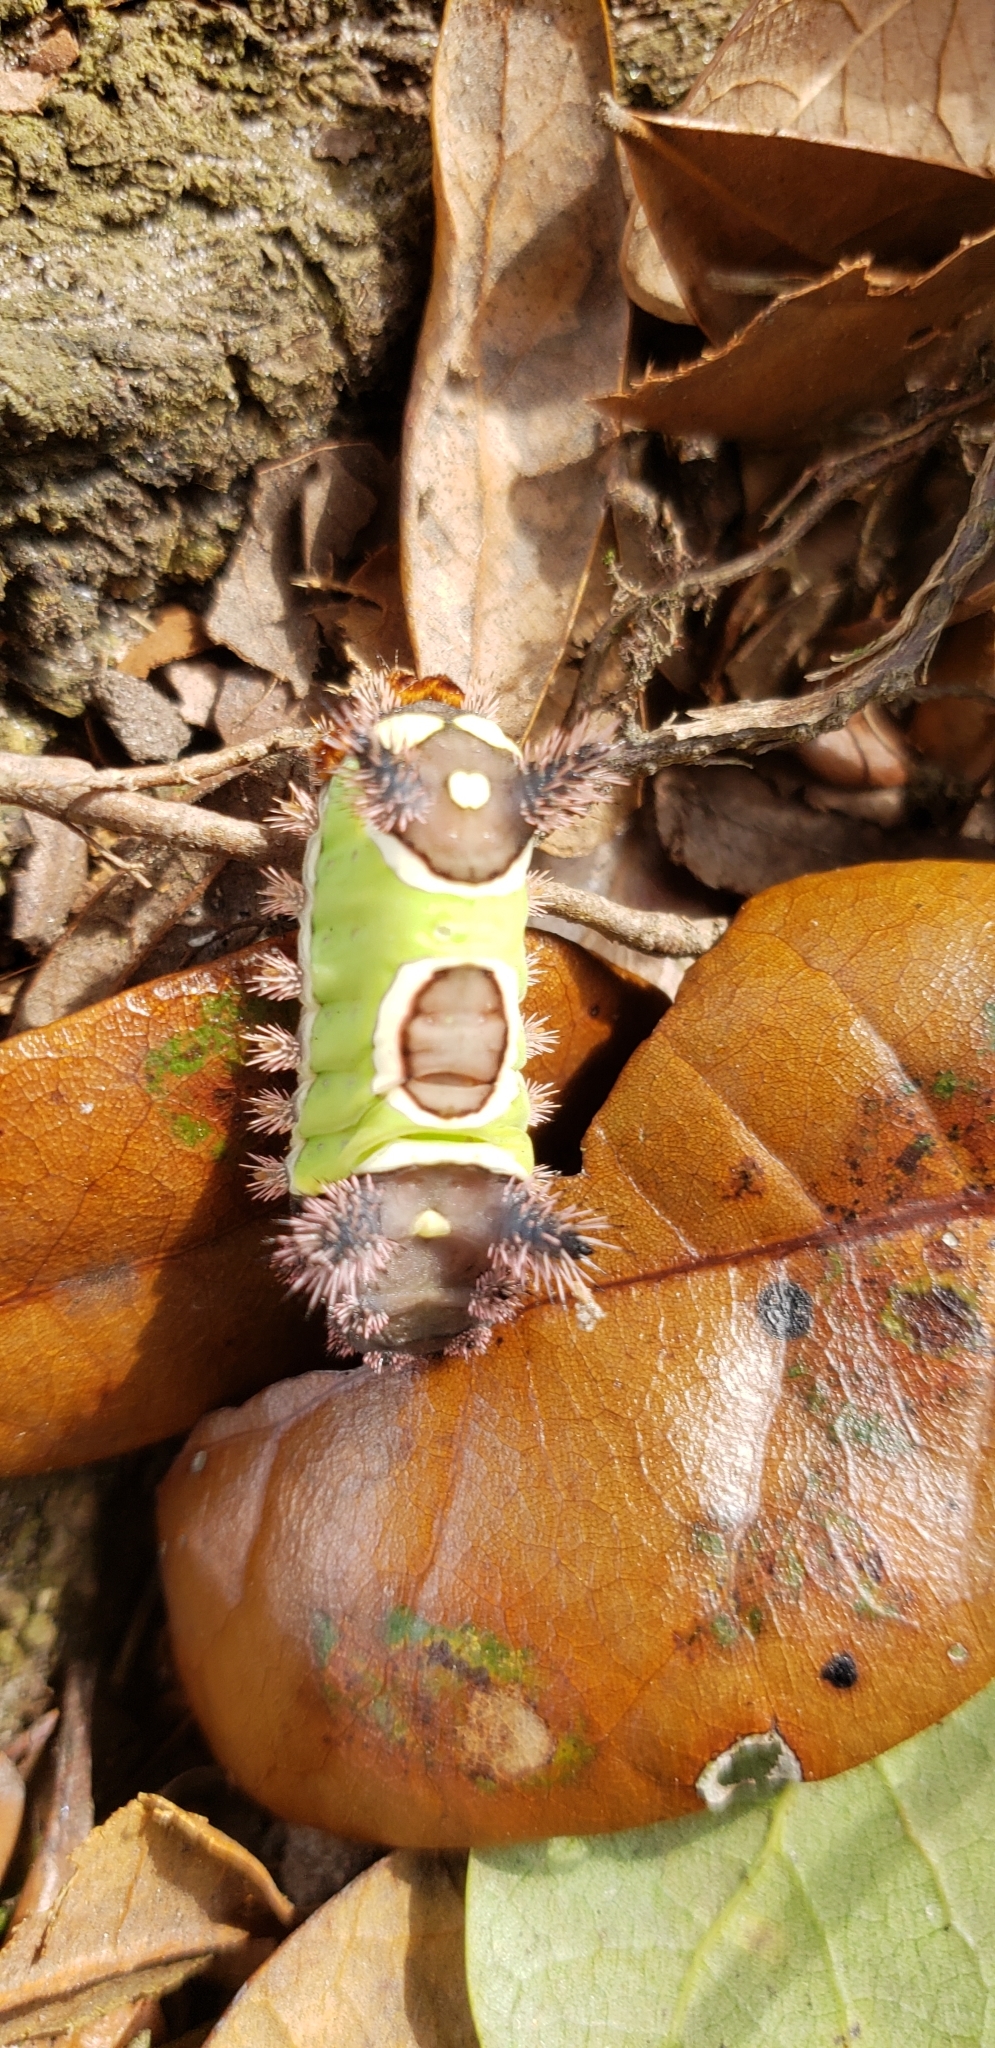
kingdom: Animalia
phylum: Arthropoda
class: Insecta
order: Lepidoptera
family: Limacodidae
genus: Acharia
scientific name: Acharia stimulea
